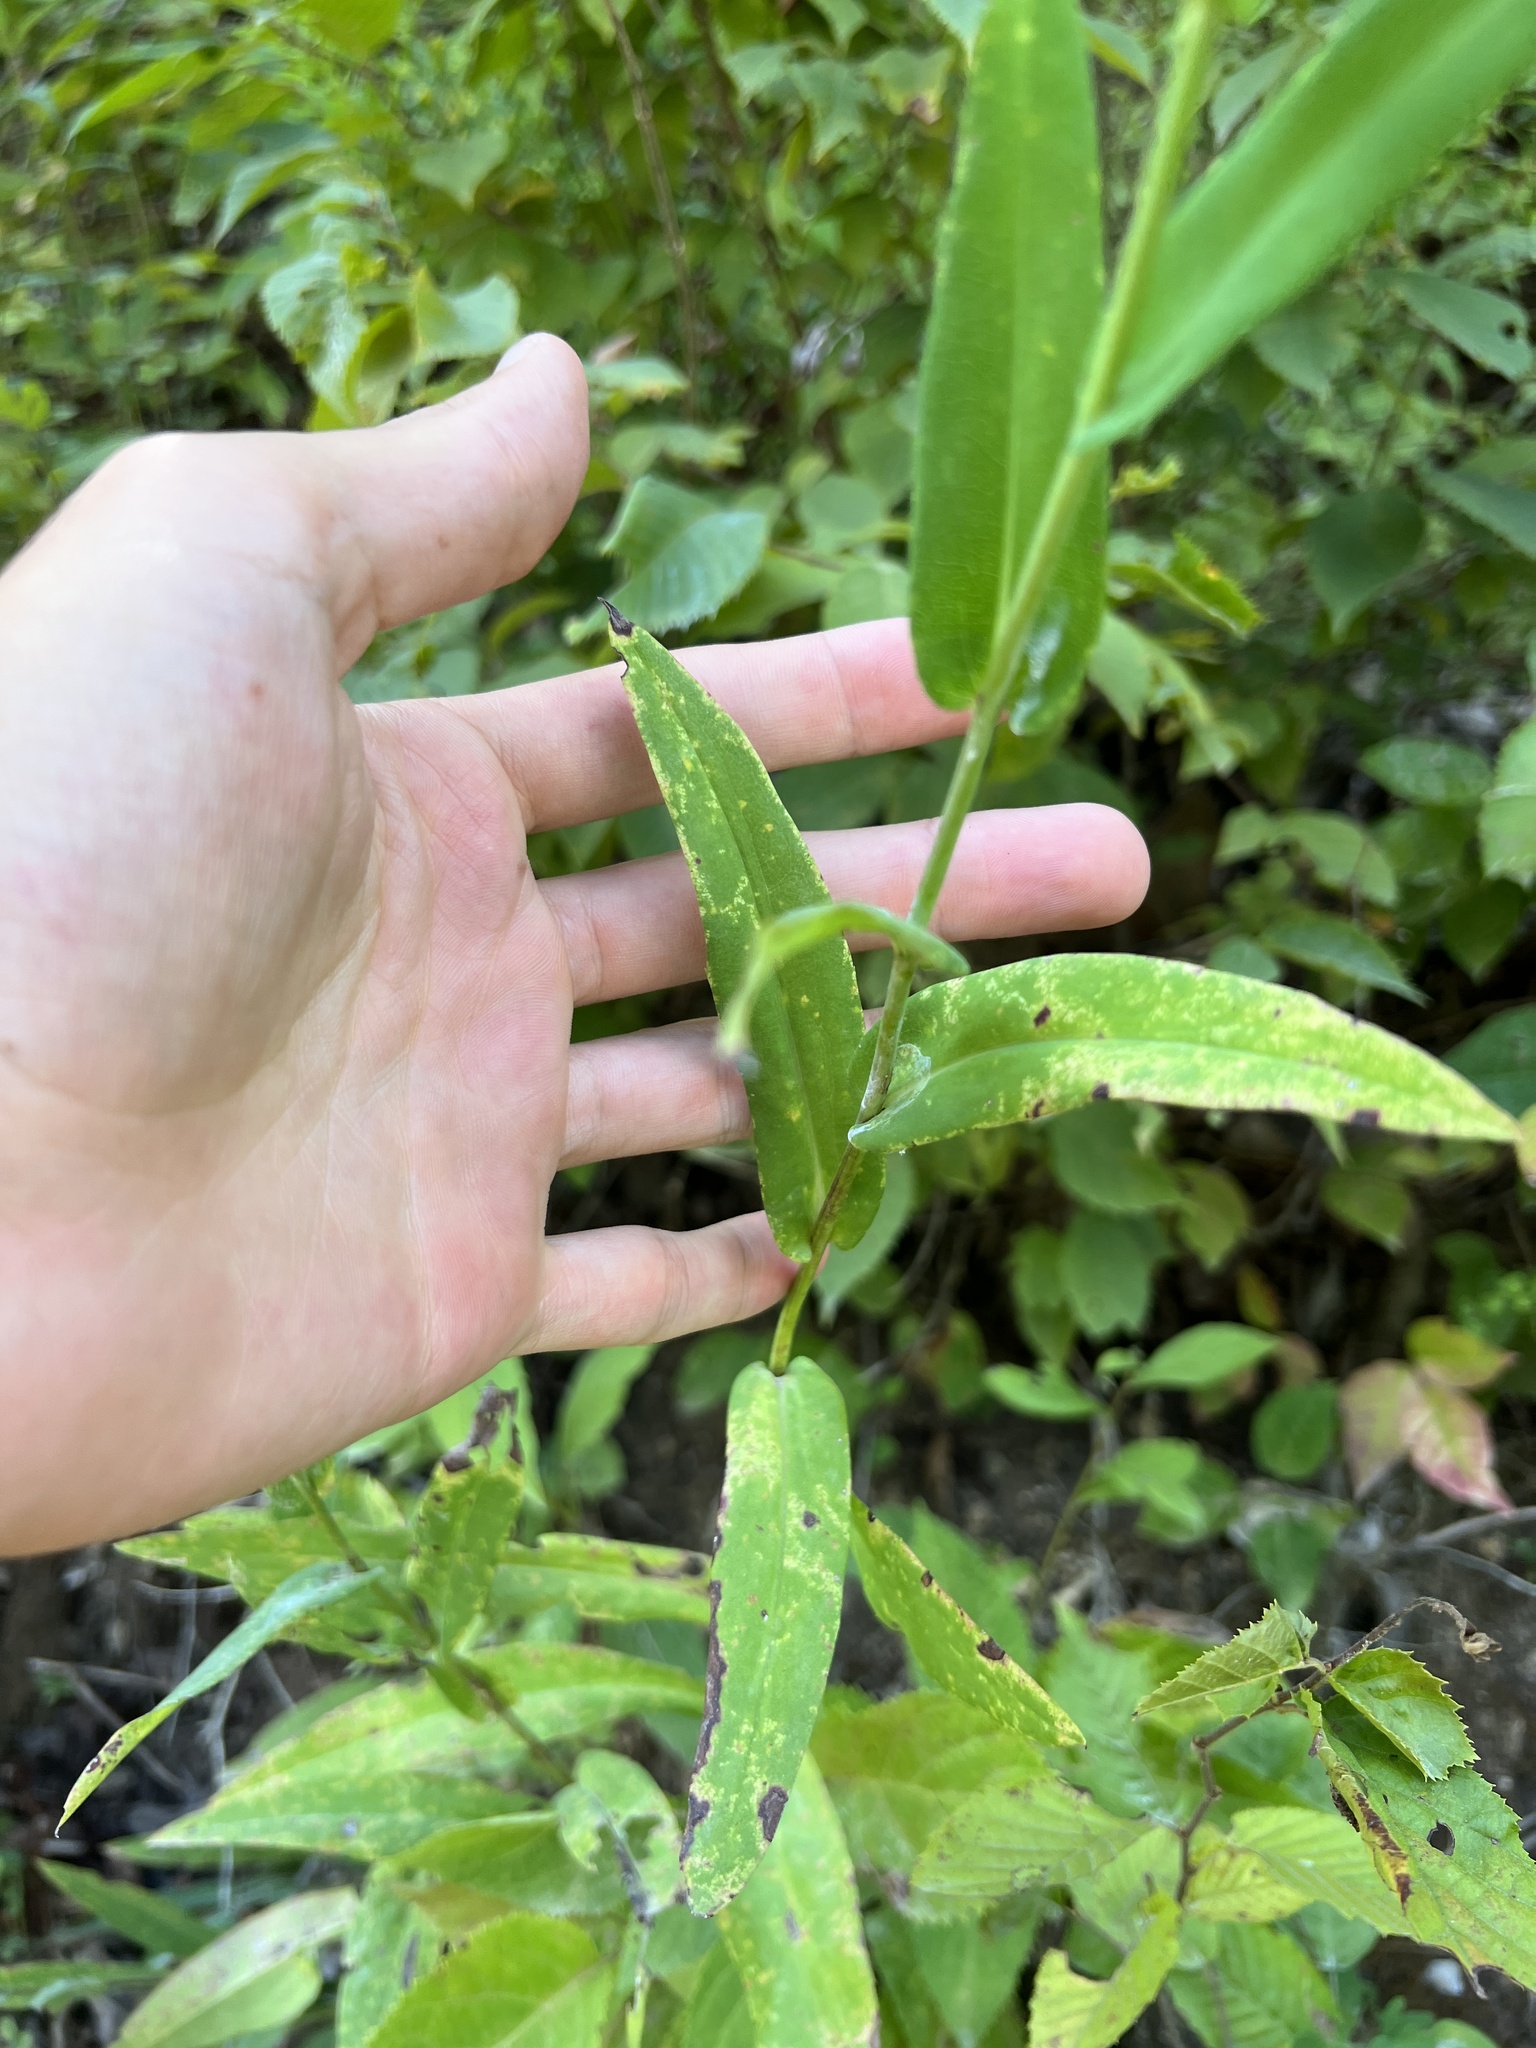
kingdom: Plantae
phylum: Tracheophyta
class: Magnoliopsida
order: Asterales
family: Asteraceae
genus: Symphyotrichum
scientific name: Symphyotrichum laeve
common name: Glaucous aster
